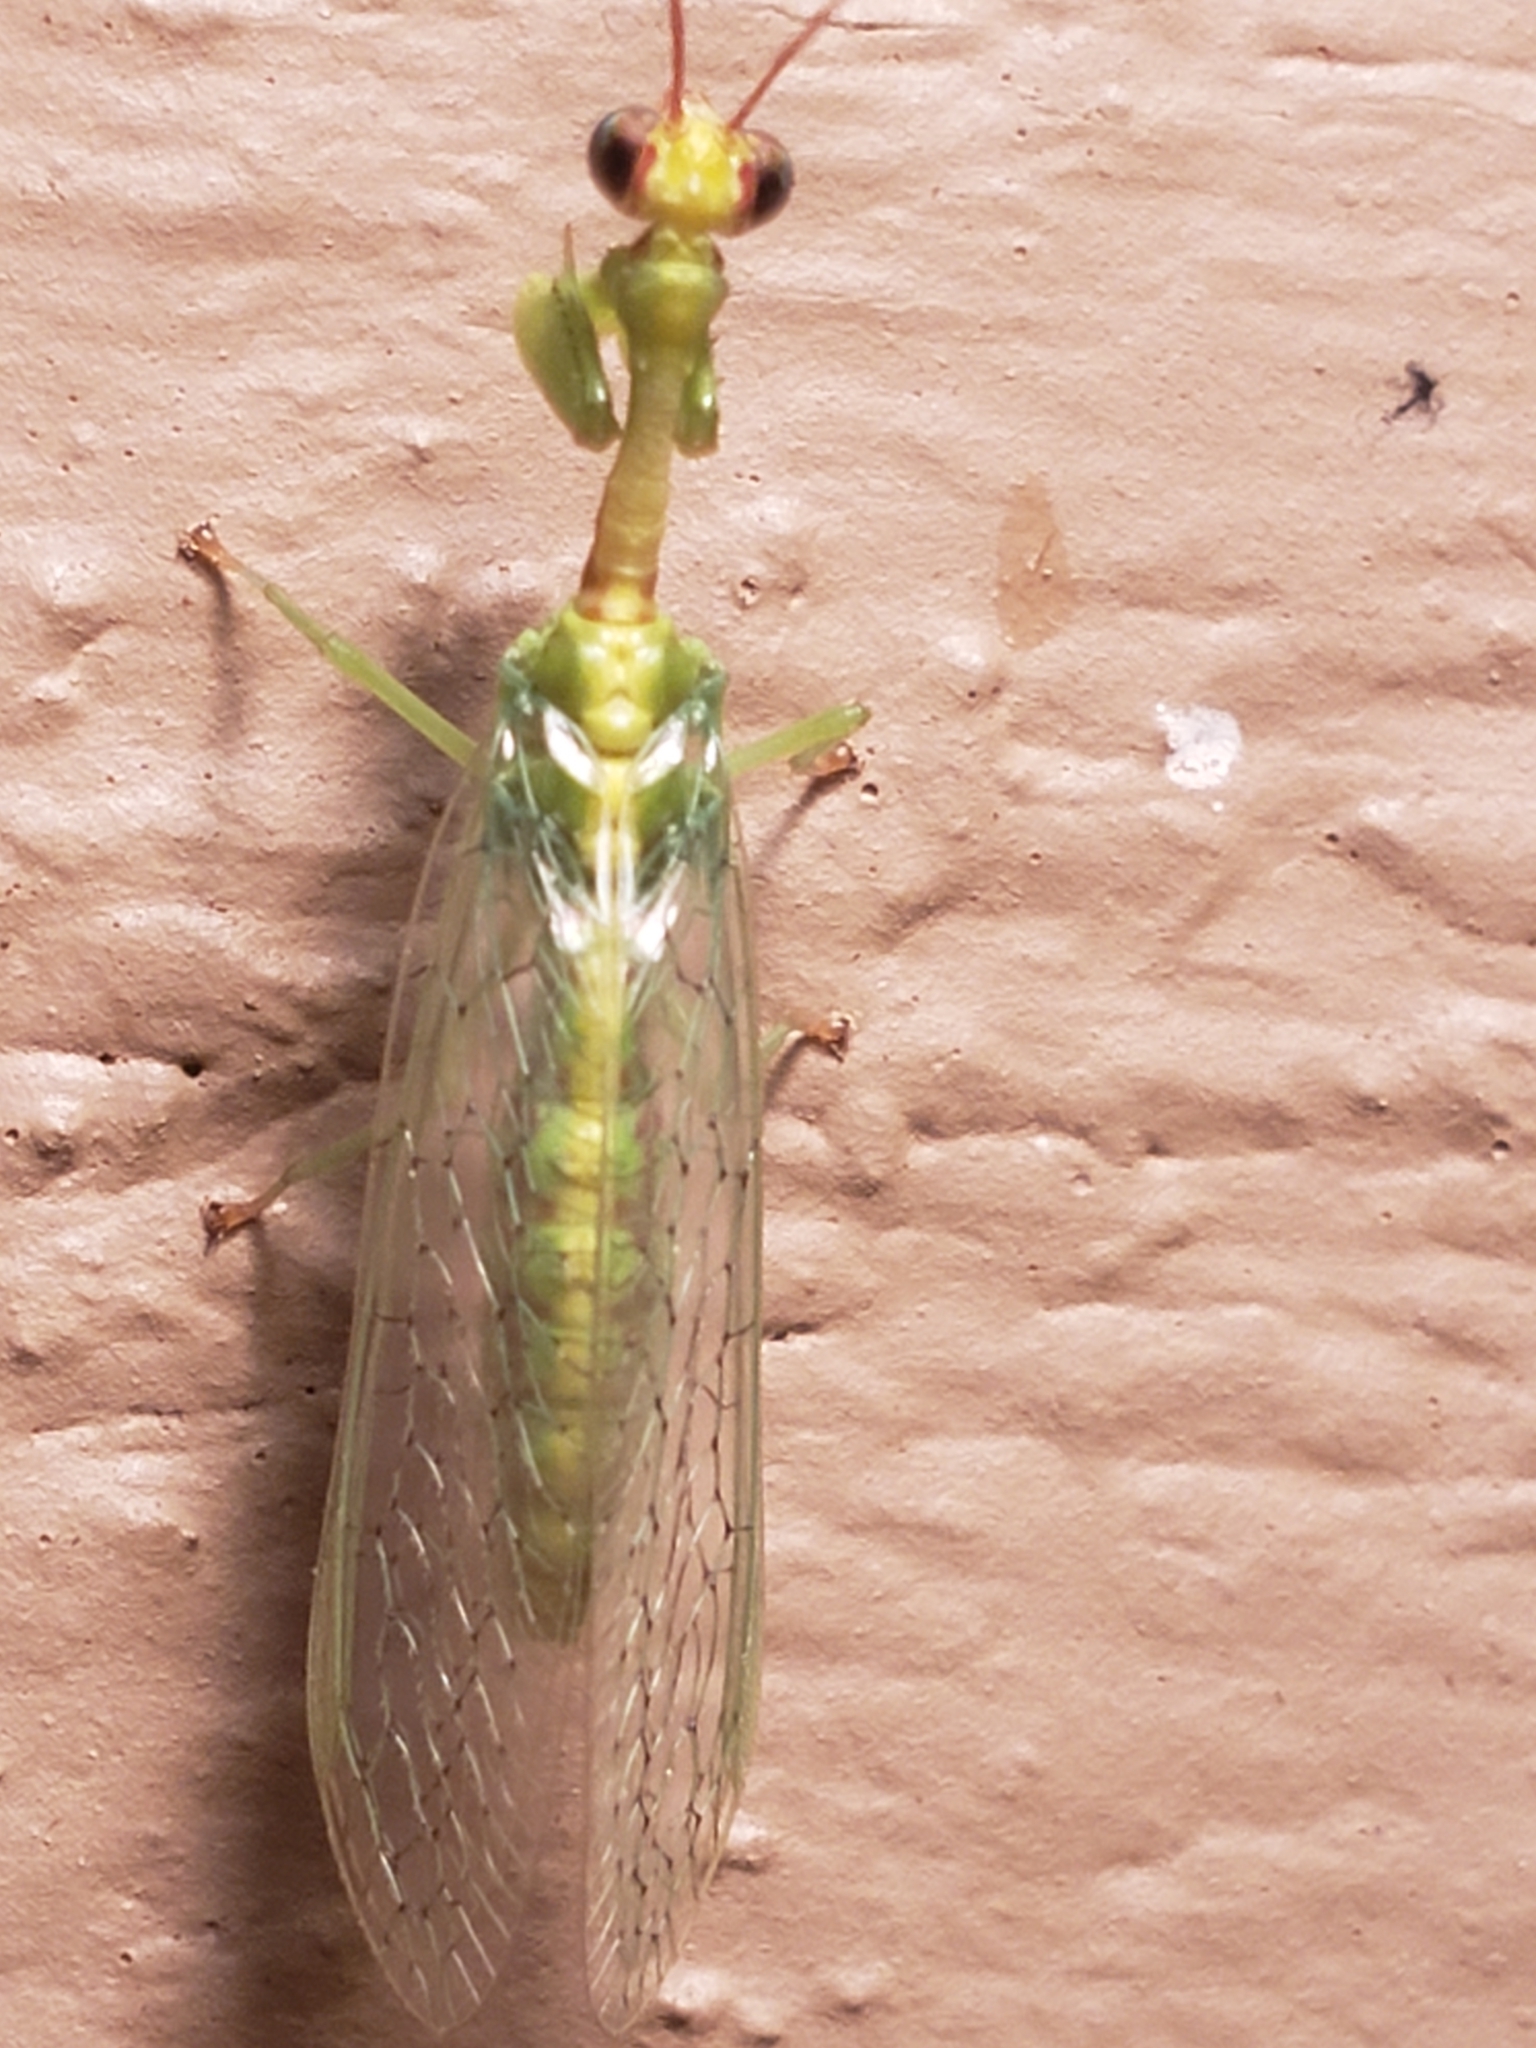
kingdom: Animalia
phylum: Arthropoda
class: Insecta
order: Neuroptera
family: Mantispidae
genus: Zeugomantispa
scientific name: Zeugomantispa minuta
